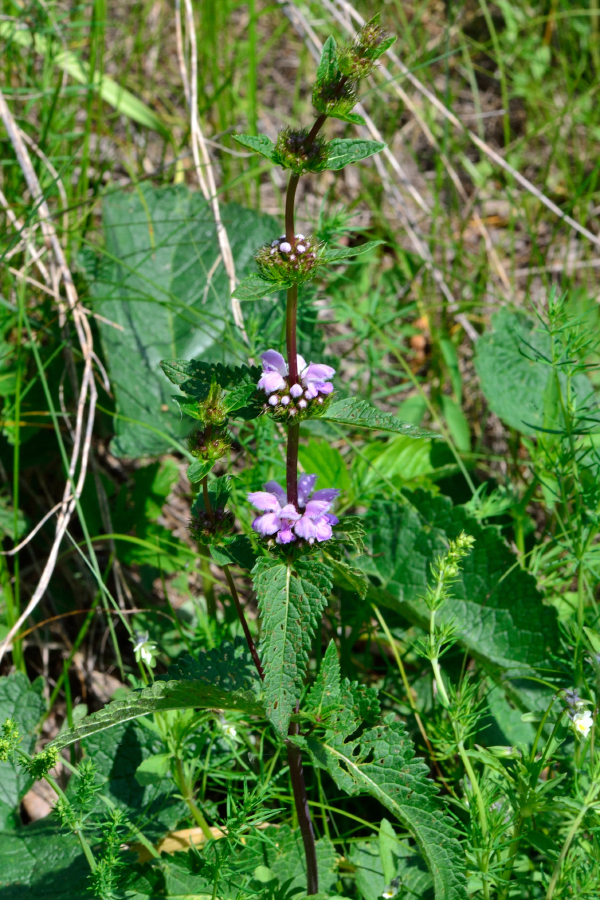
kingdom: Plantae
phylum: Tracheophyta
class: Magnoliopsida
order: Lamiales
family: Lamiaceae
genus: Phlomoides
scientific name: Phlomoides tuberosa
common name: Tuberous jerusalem sage
